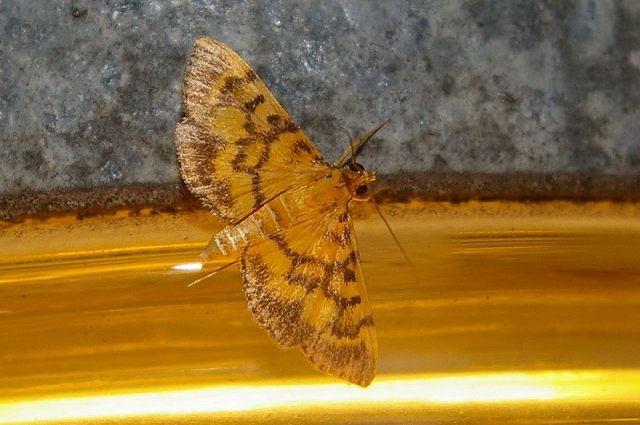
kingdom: Animalia
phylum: Arthropoda
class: Insecta
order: Lepidoptera
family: Crambidae
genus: Omiodes
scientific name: Omiodes diemenalis
